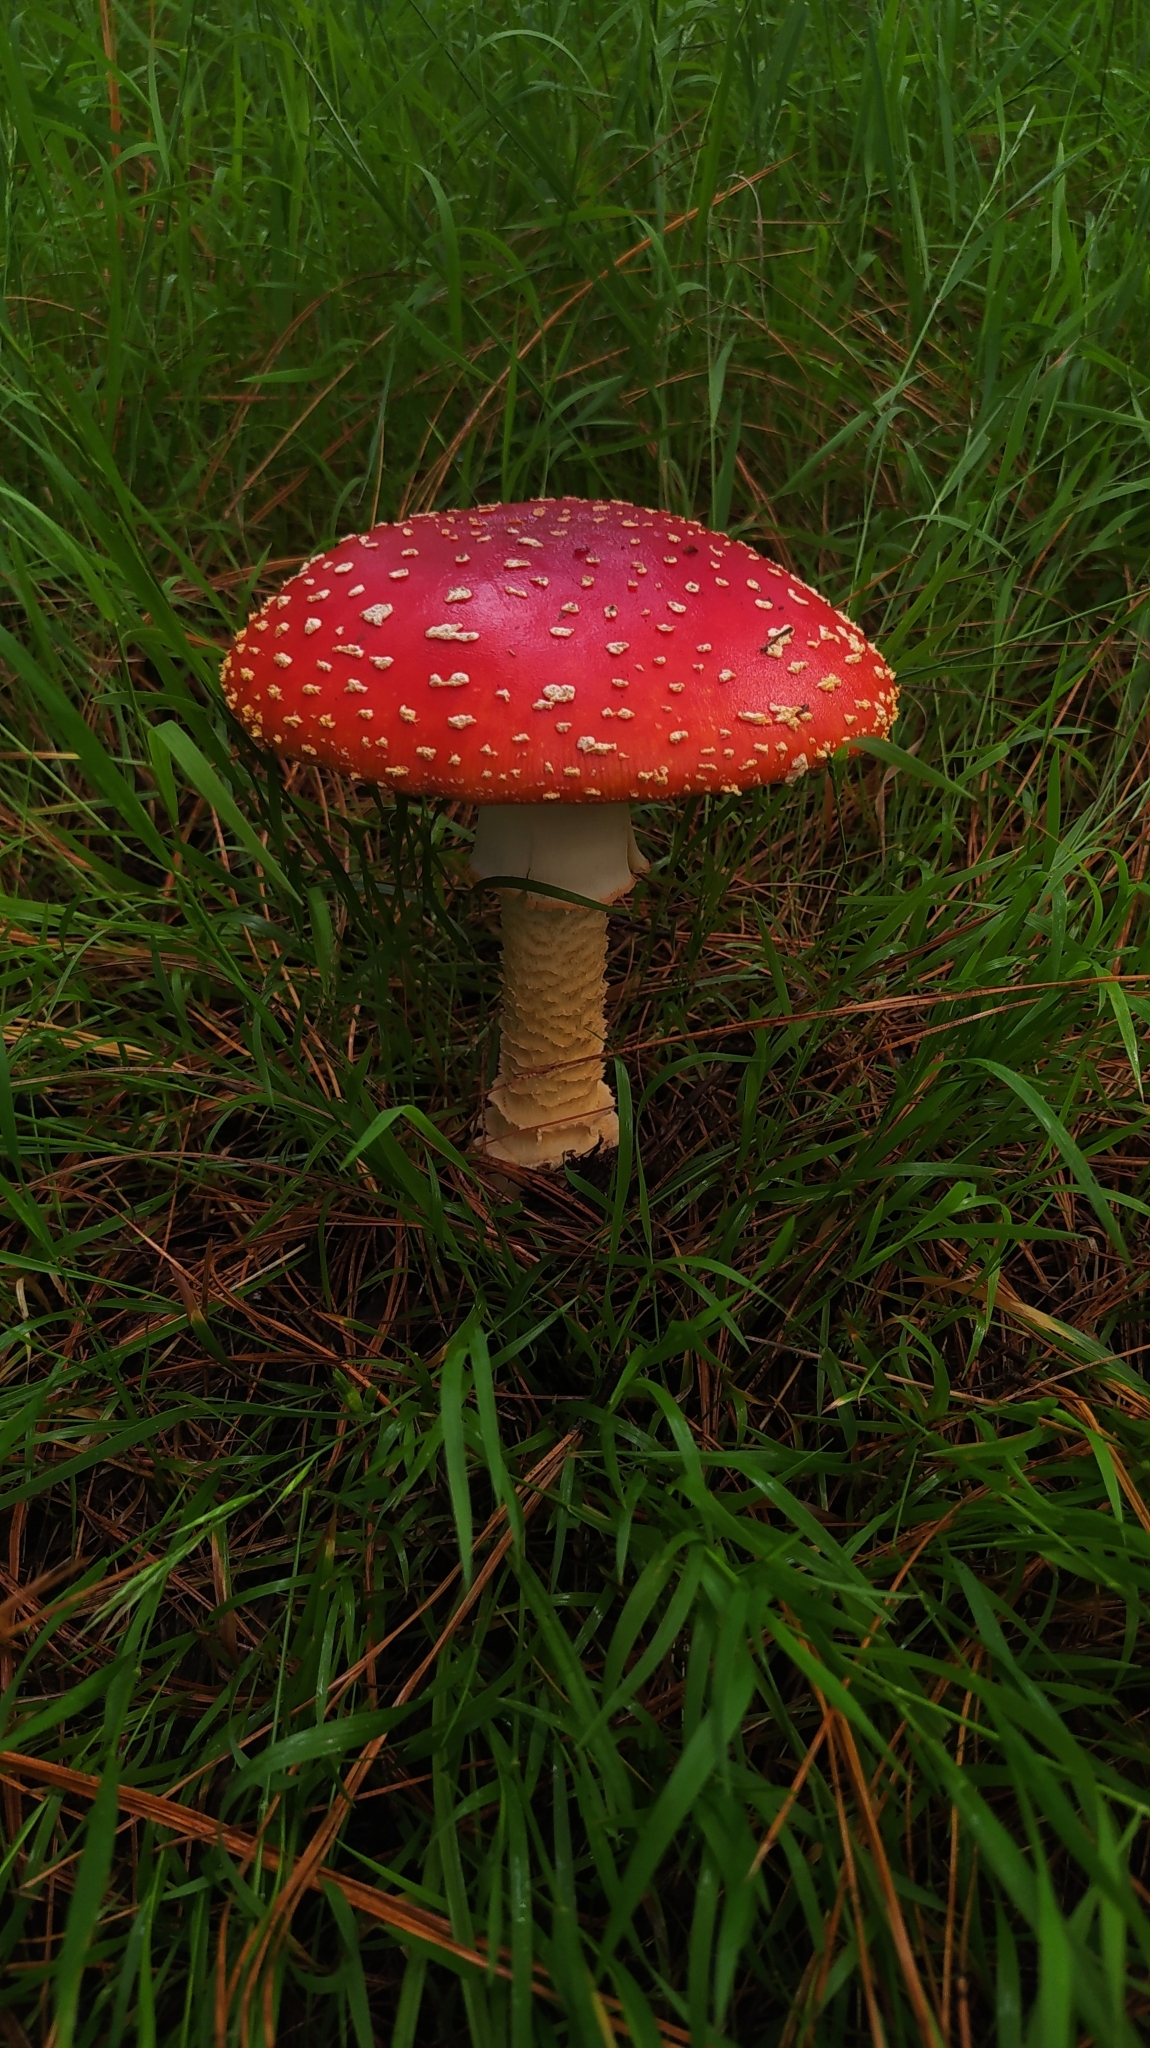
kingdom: Fungi
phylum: Basidiomycota
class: Agaricomycetes
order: Agaricales
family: Amanitaceae
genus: Amanita
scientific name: Amanita muscaria
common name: Fly agaric
